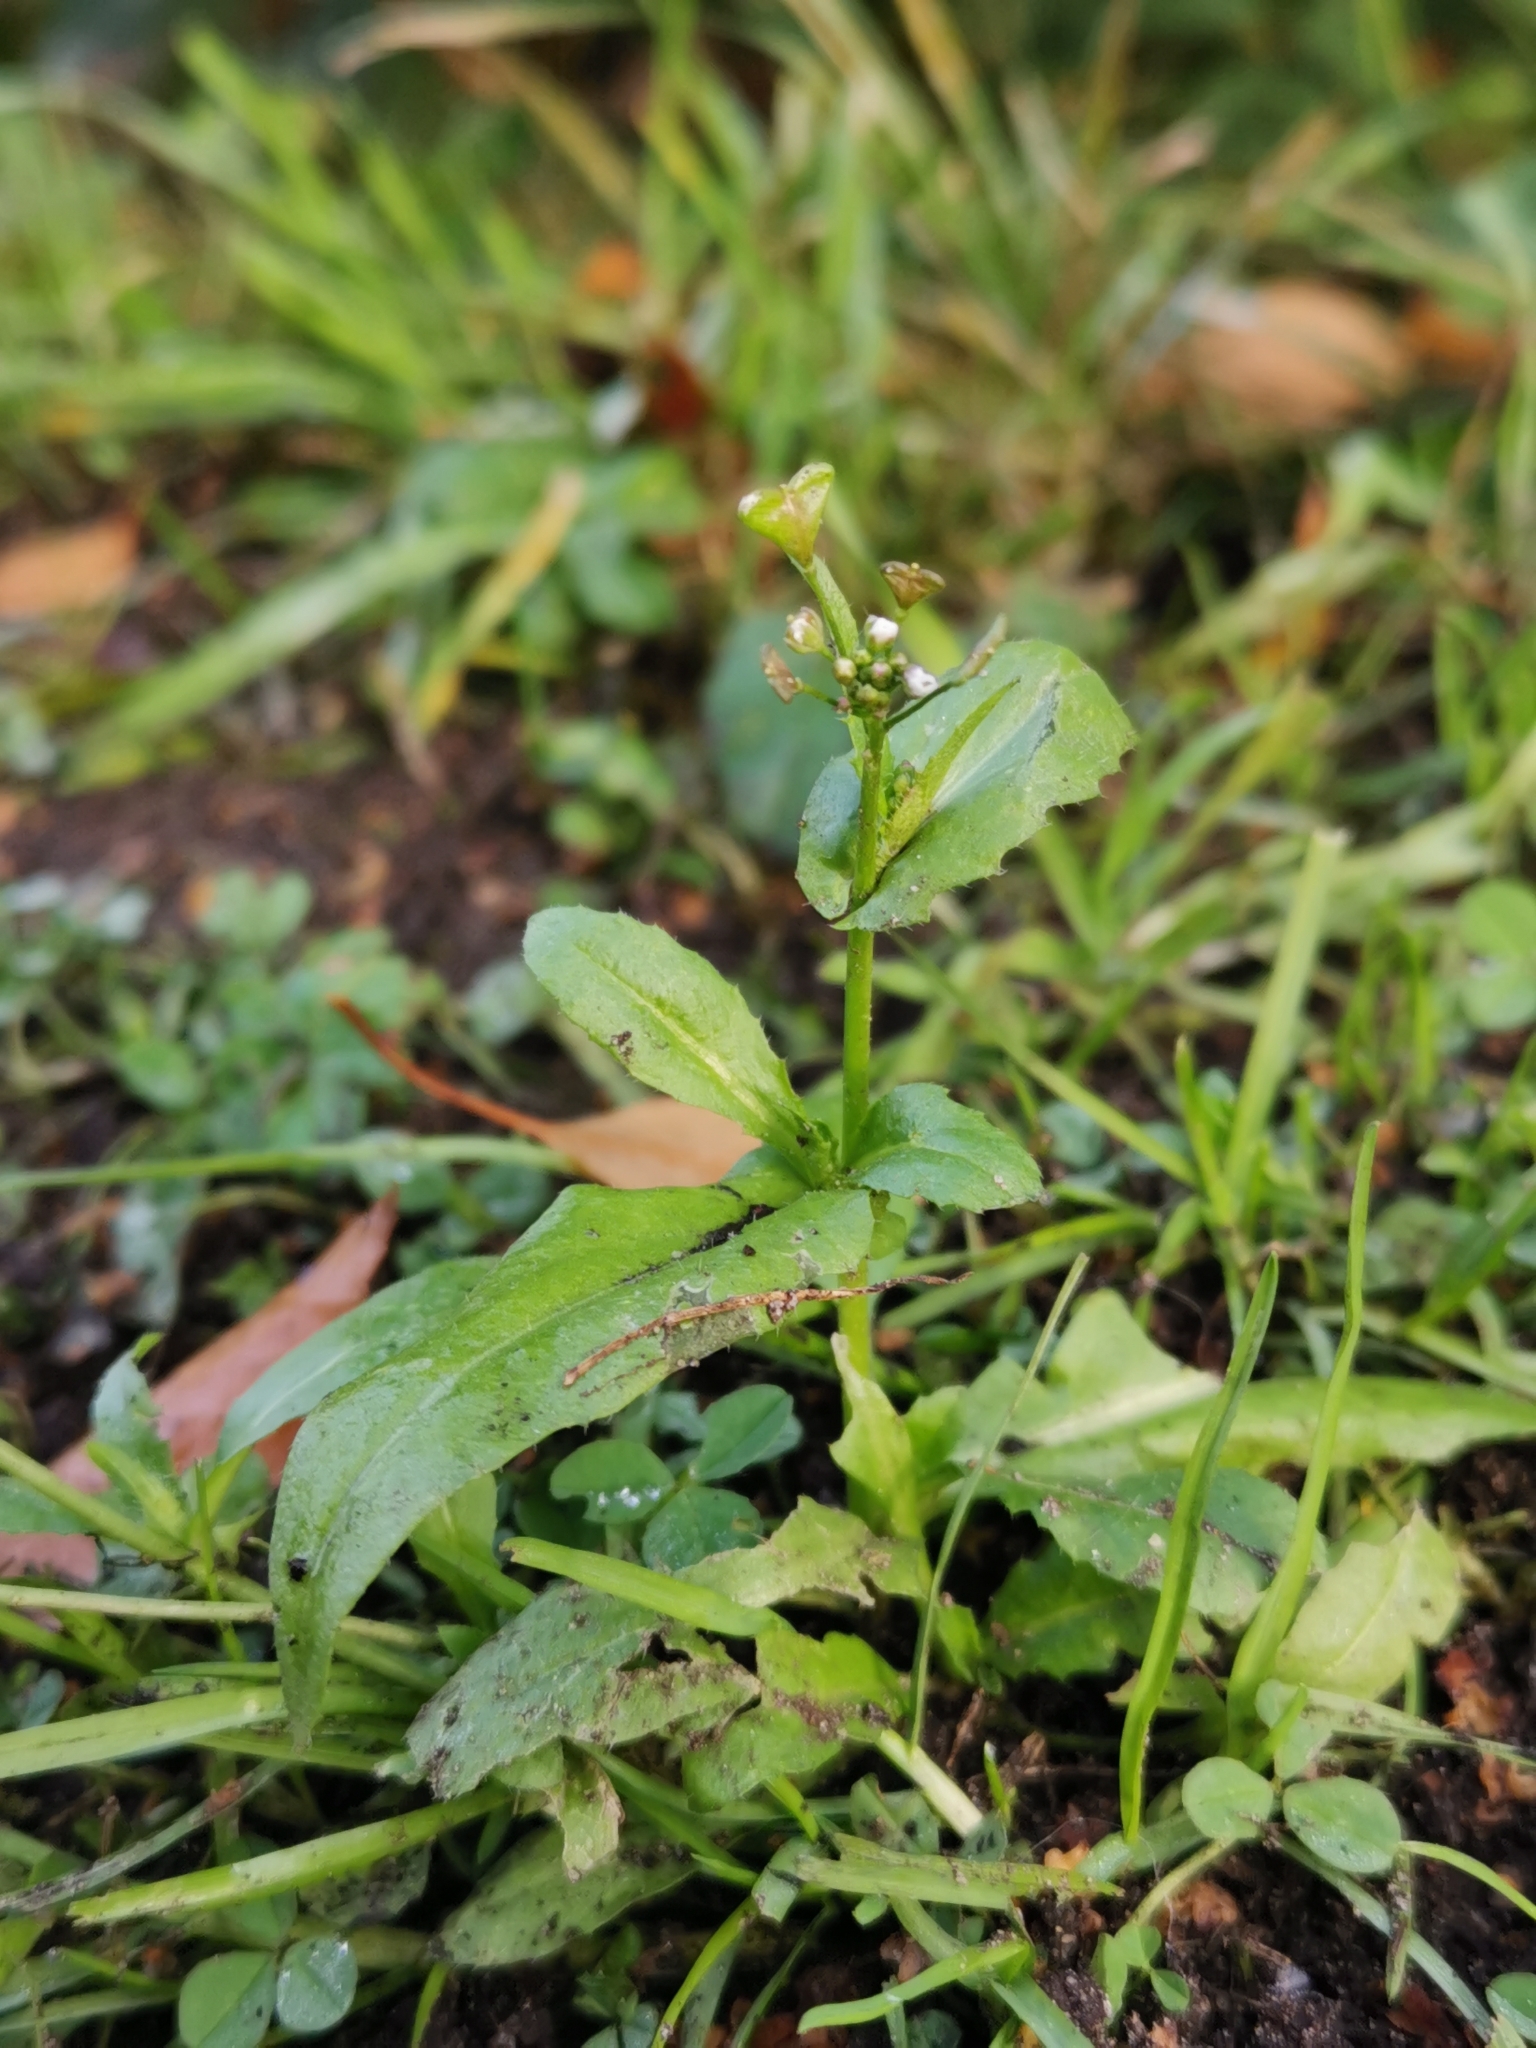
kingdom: Plantae
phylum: Tracheophyta
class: Magnoliopsida
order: Brassicales
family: Brassicaceae
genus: Capsella
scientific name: Capsella bursa-pastoris
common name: Shepherd's purse
